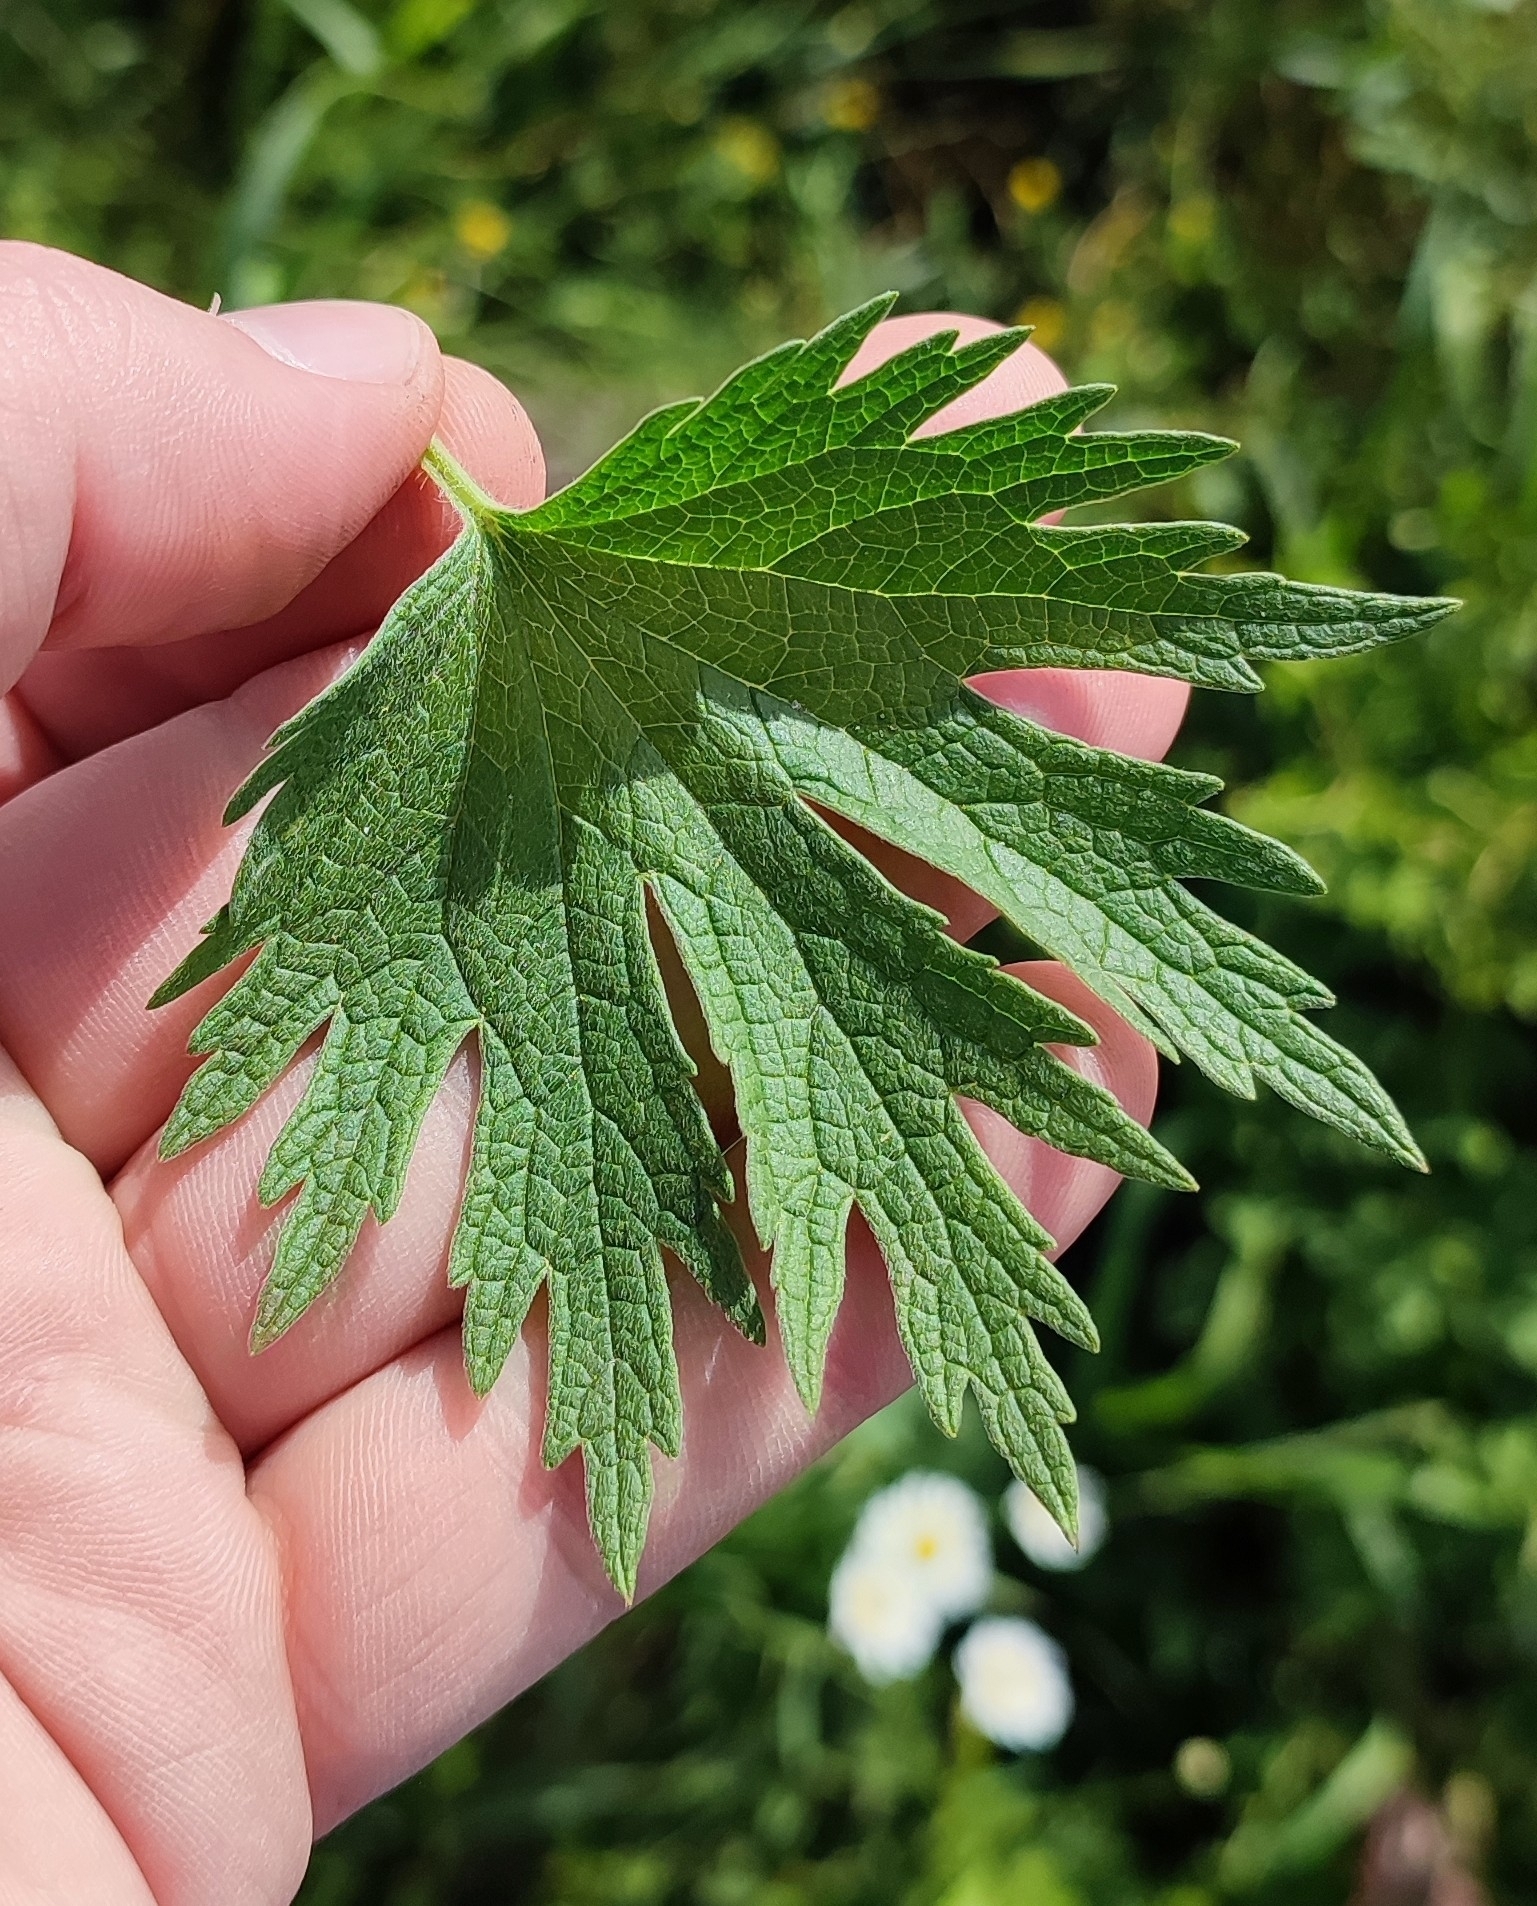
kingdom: Plantae
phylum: Tracheophyta
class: Magnoliopsida
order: Lamiales
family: Lamiaceae
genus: Leonurus
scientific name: Leonurus quinquelobatus
